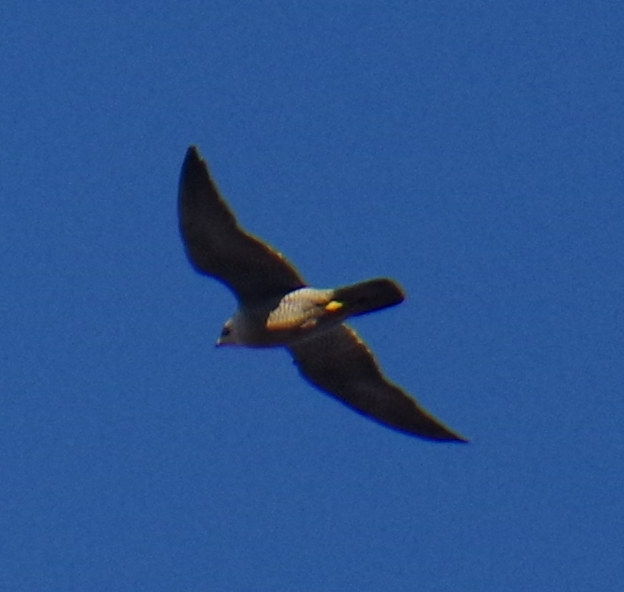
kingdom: Animalia
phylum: Chordata
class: Aves
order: Falconiformes
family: Falconidae
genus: Falco
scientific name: Falco peregrinus
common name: Peregrine falcon
